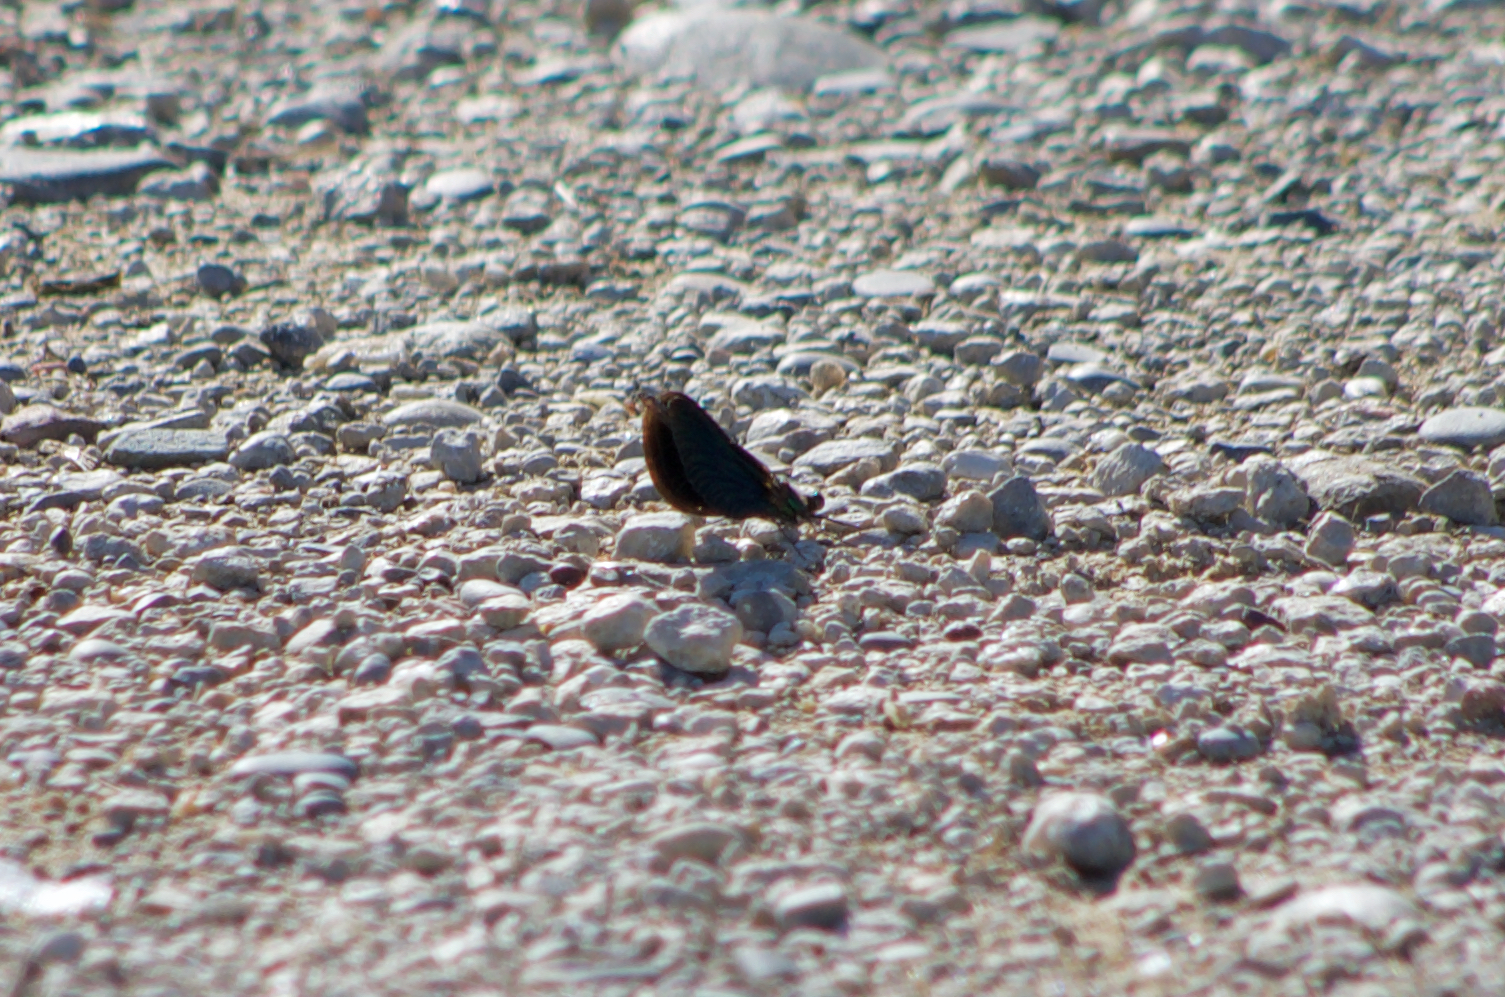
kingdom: Animalia
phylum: Arthropoda
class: Insecta
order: Odonata
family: Calopterygidae
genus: Calopteryx
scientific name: Calopteryx virgo
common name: Beautiful demoiselle
